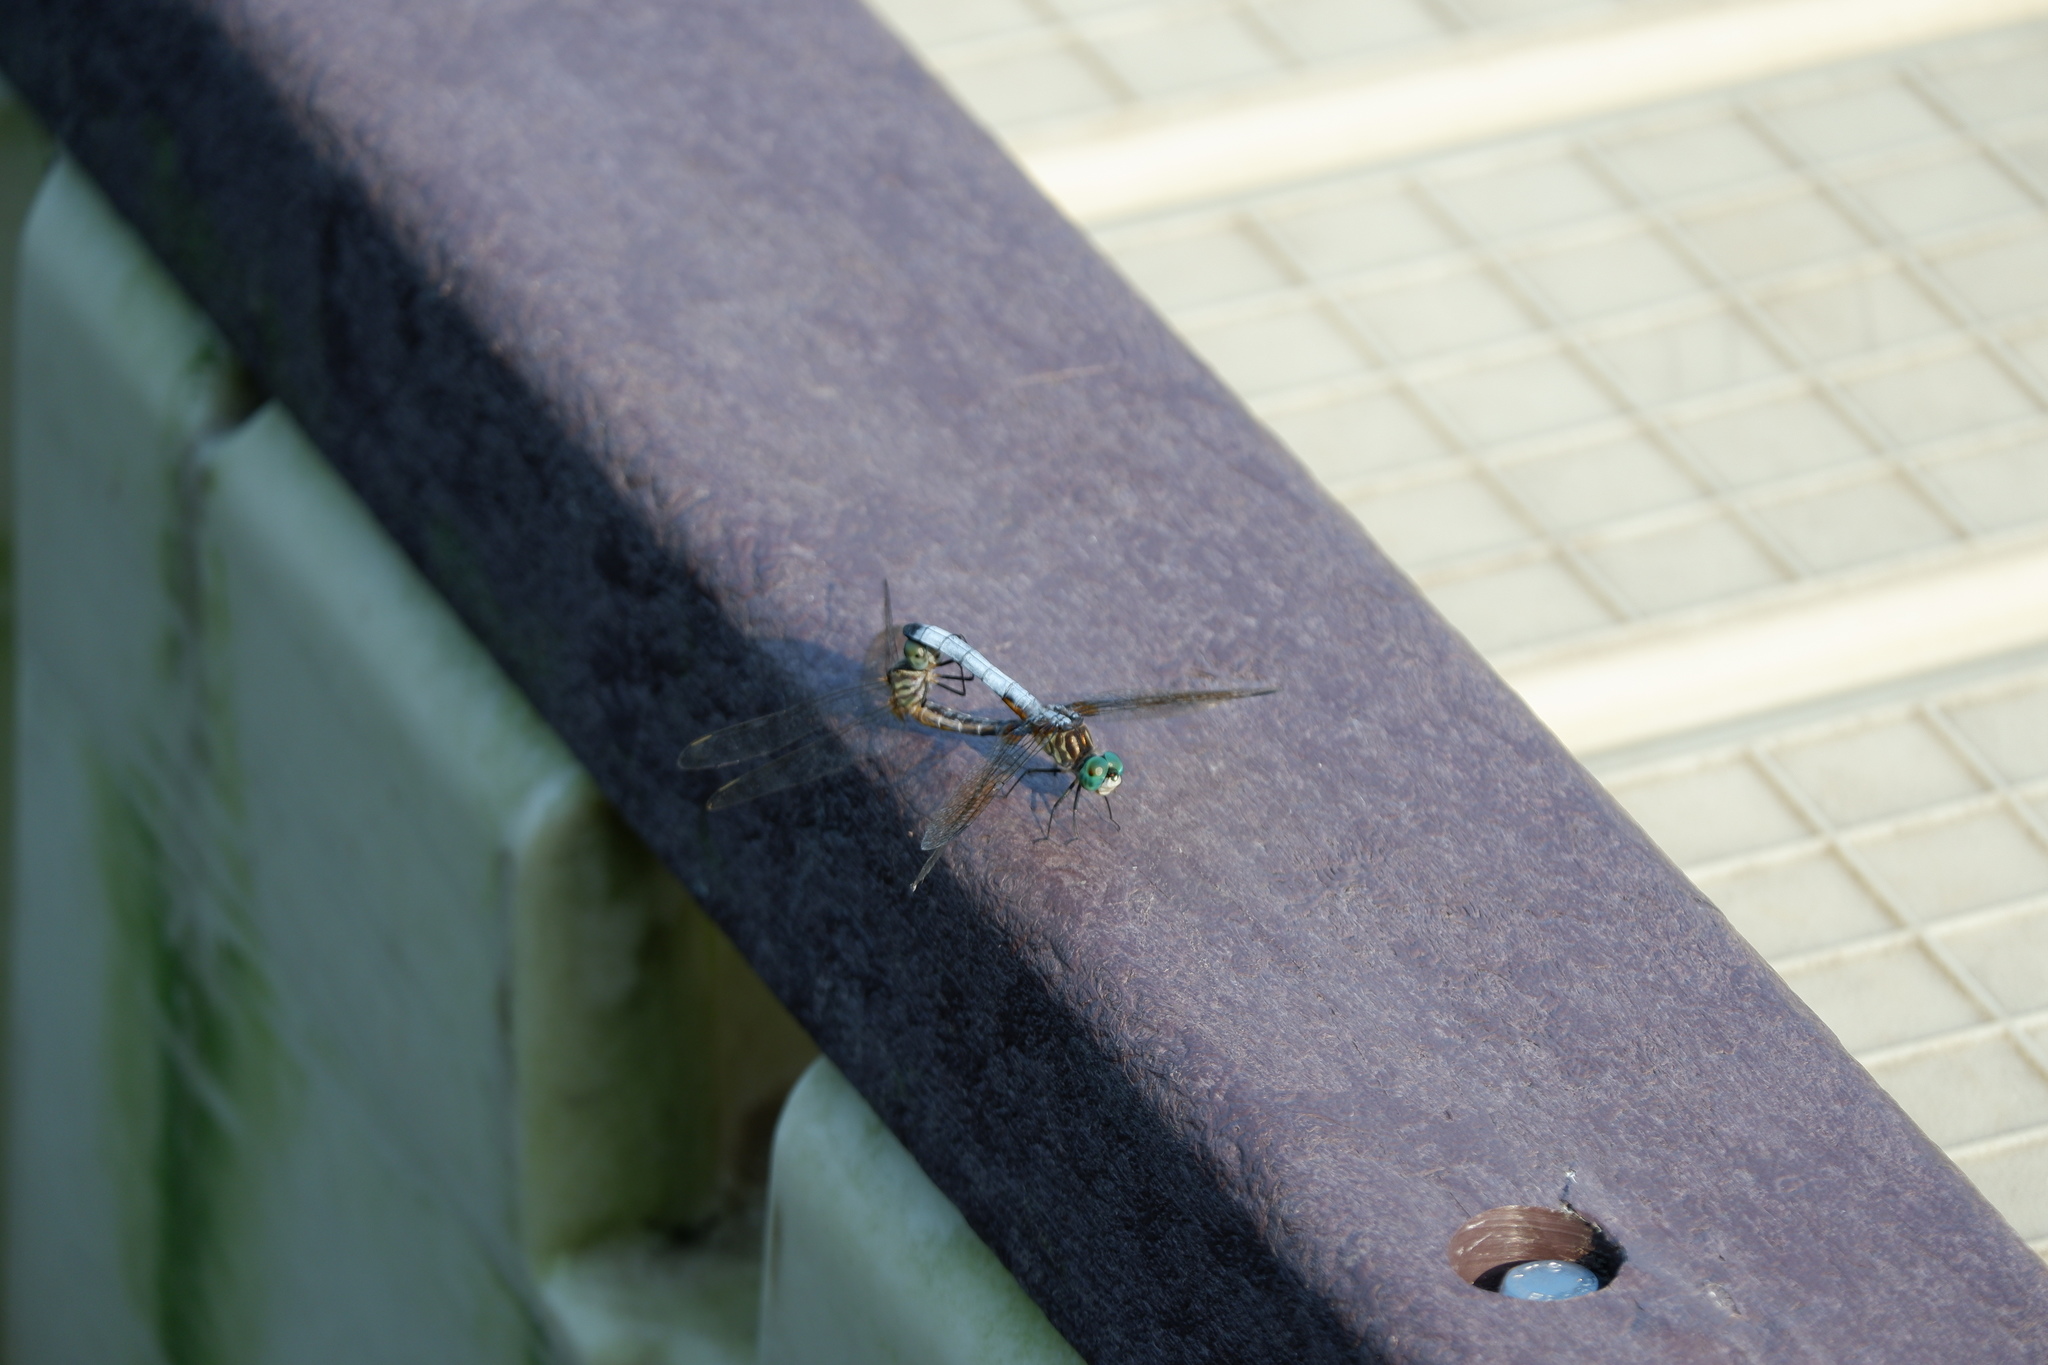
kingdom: Animalia
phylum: Arthropoda
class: Insecta
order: Odonata
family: Libellulidae
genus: Pachydiplax
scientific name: Pachydiplax longipennis
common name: Blue dasher
